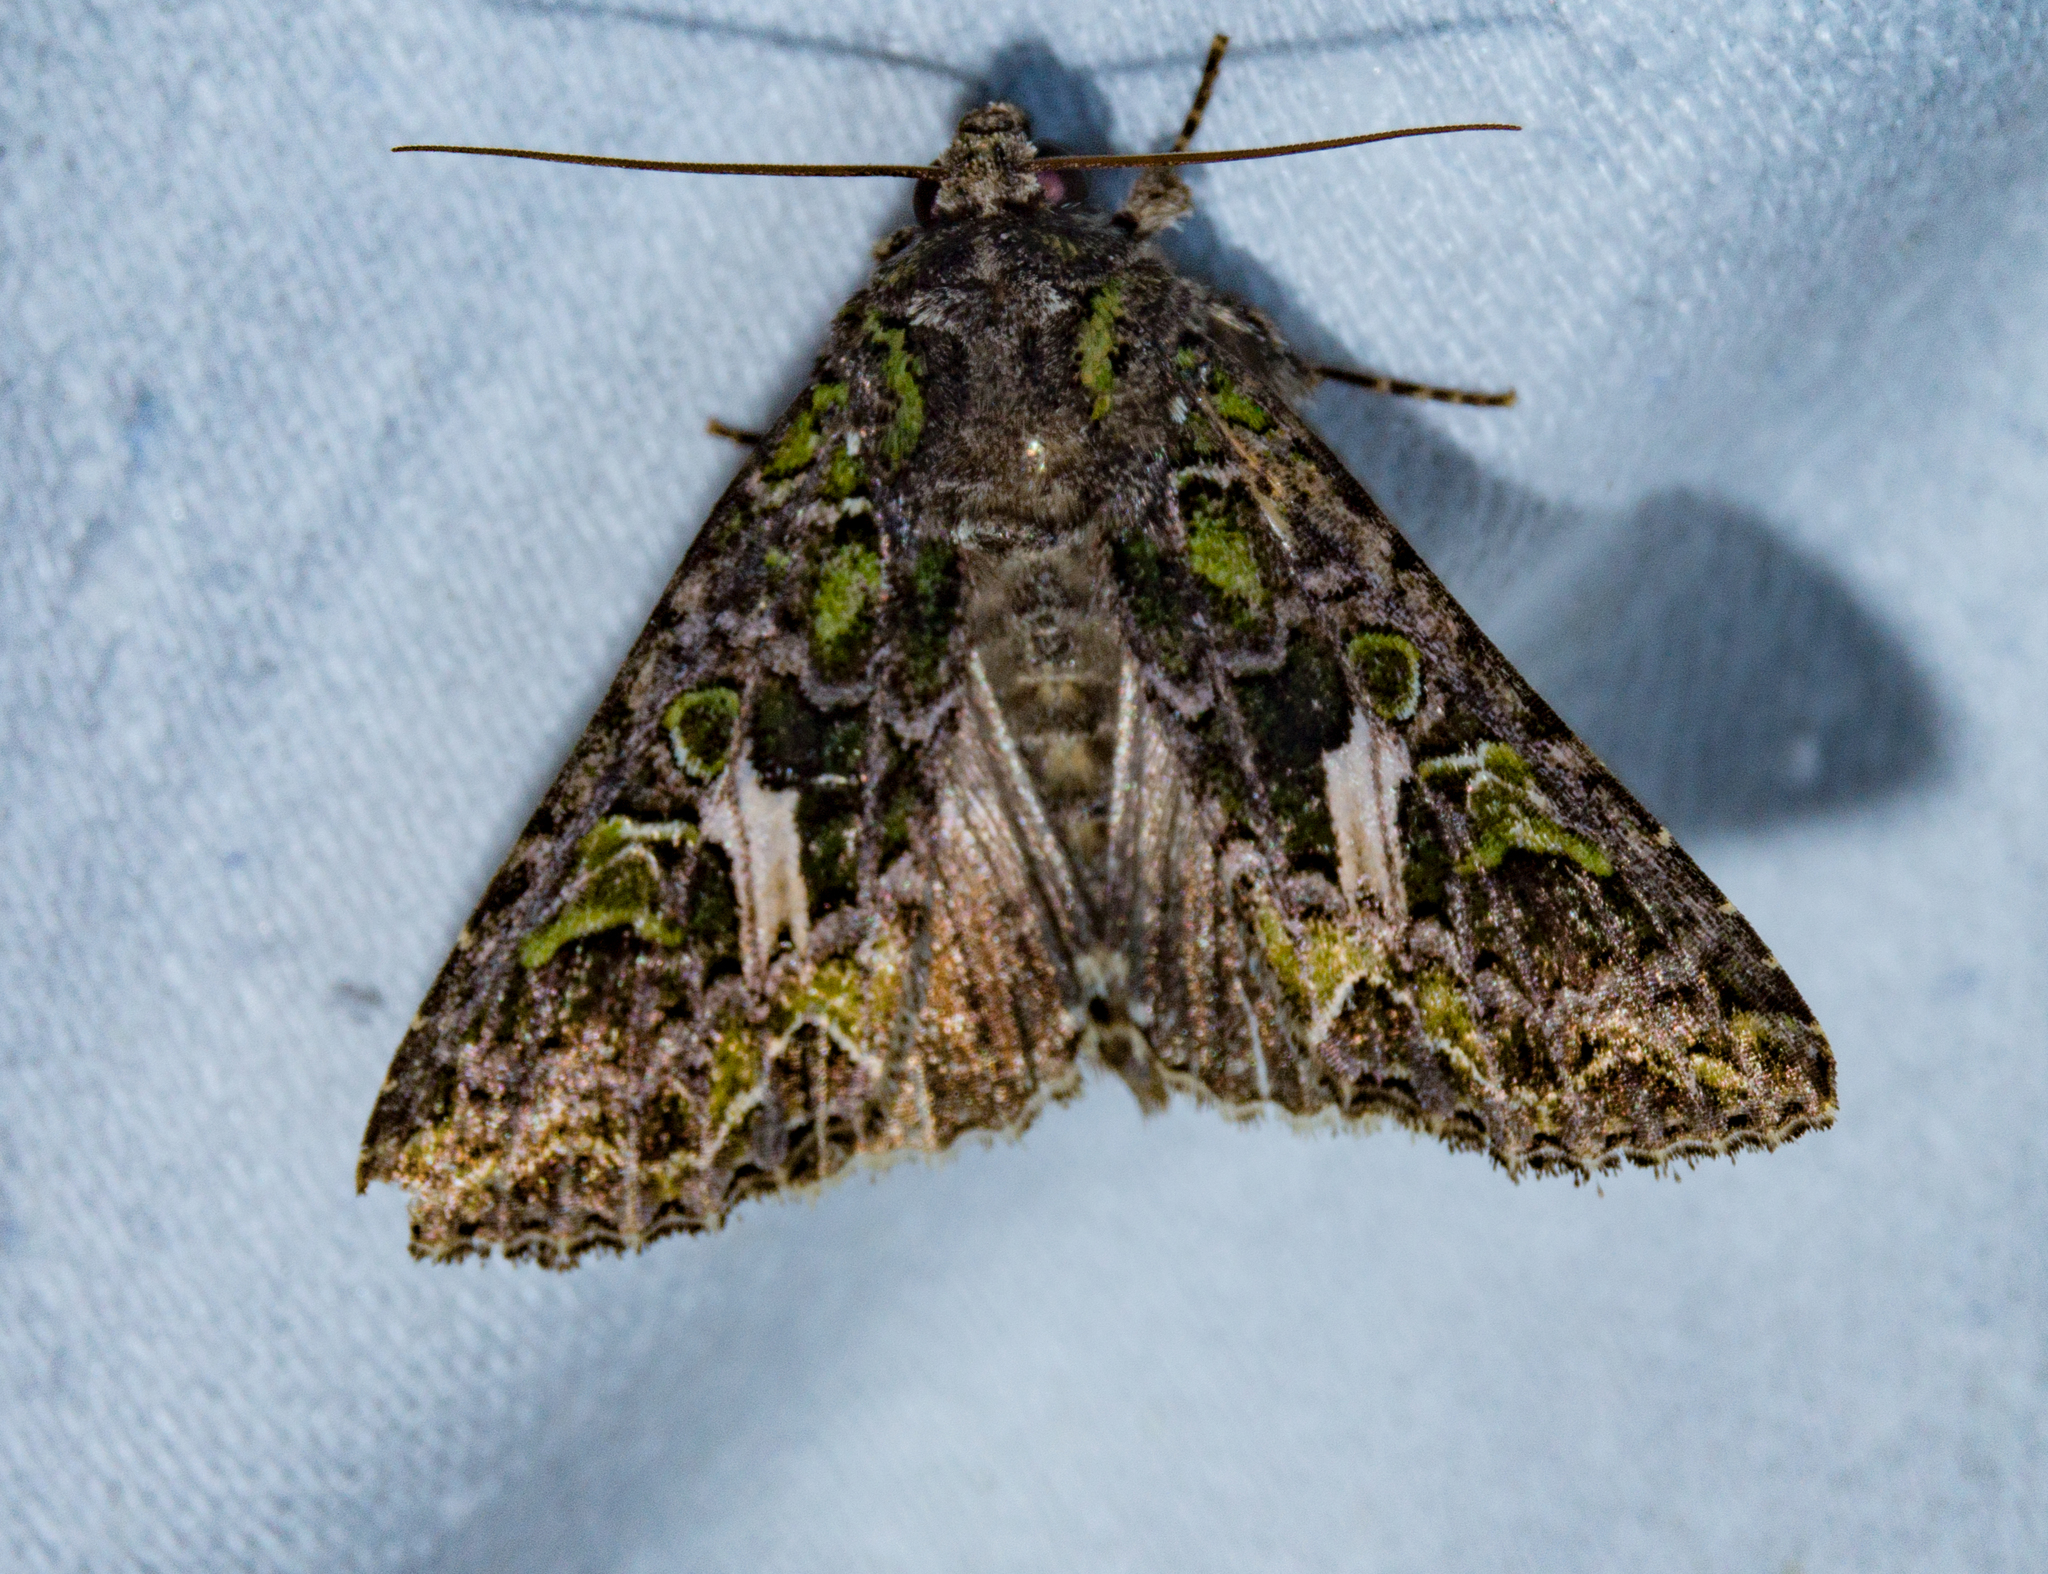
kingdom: Animalia
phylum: Arthropoda
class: Insecta
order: Lepidoptera
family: Noctuidae
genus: Trachea
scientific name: Trachea atriplicis
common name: Orache moth
